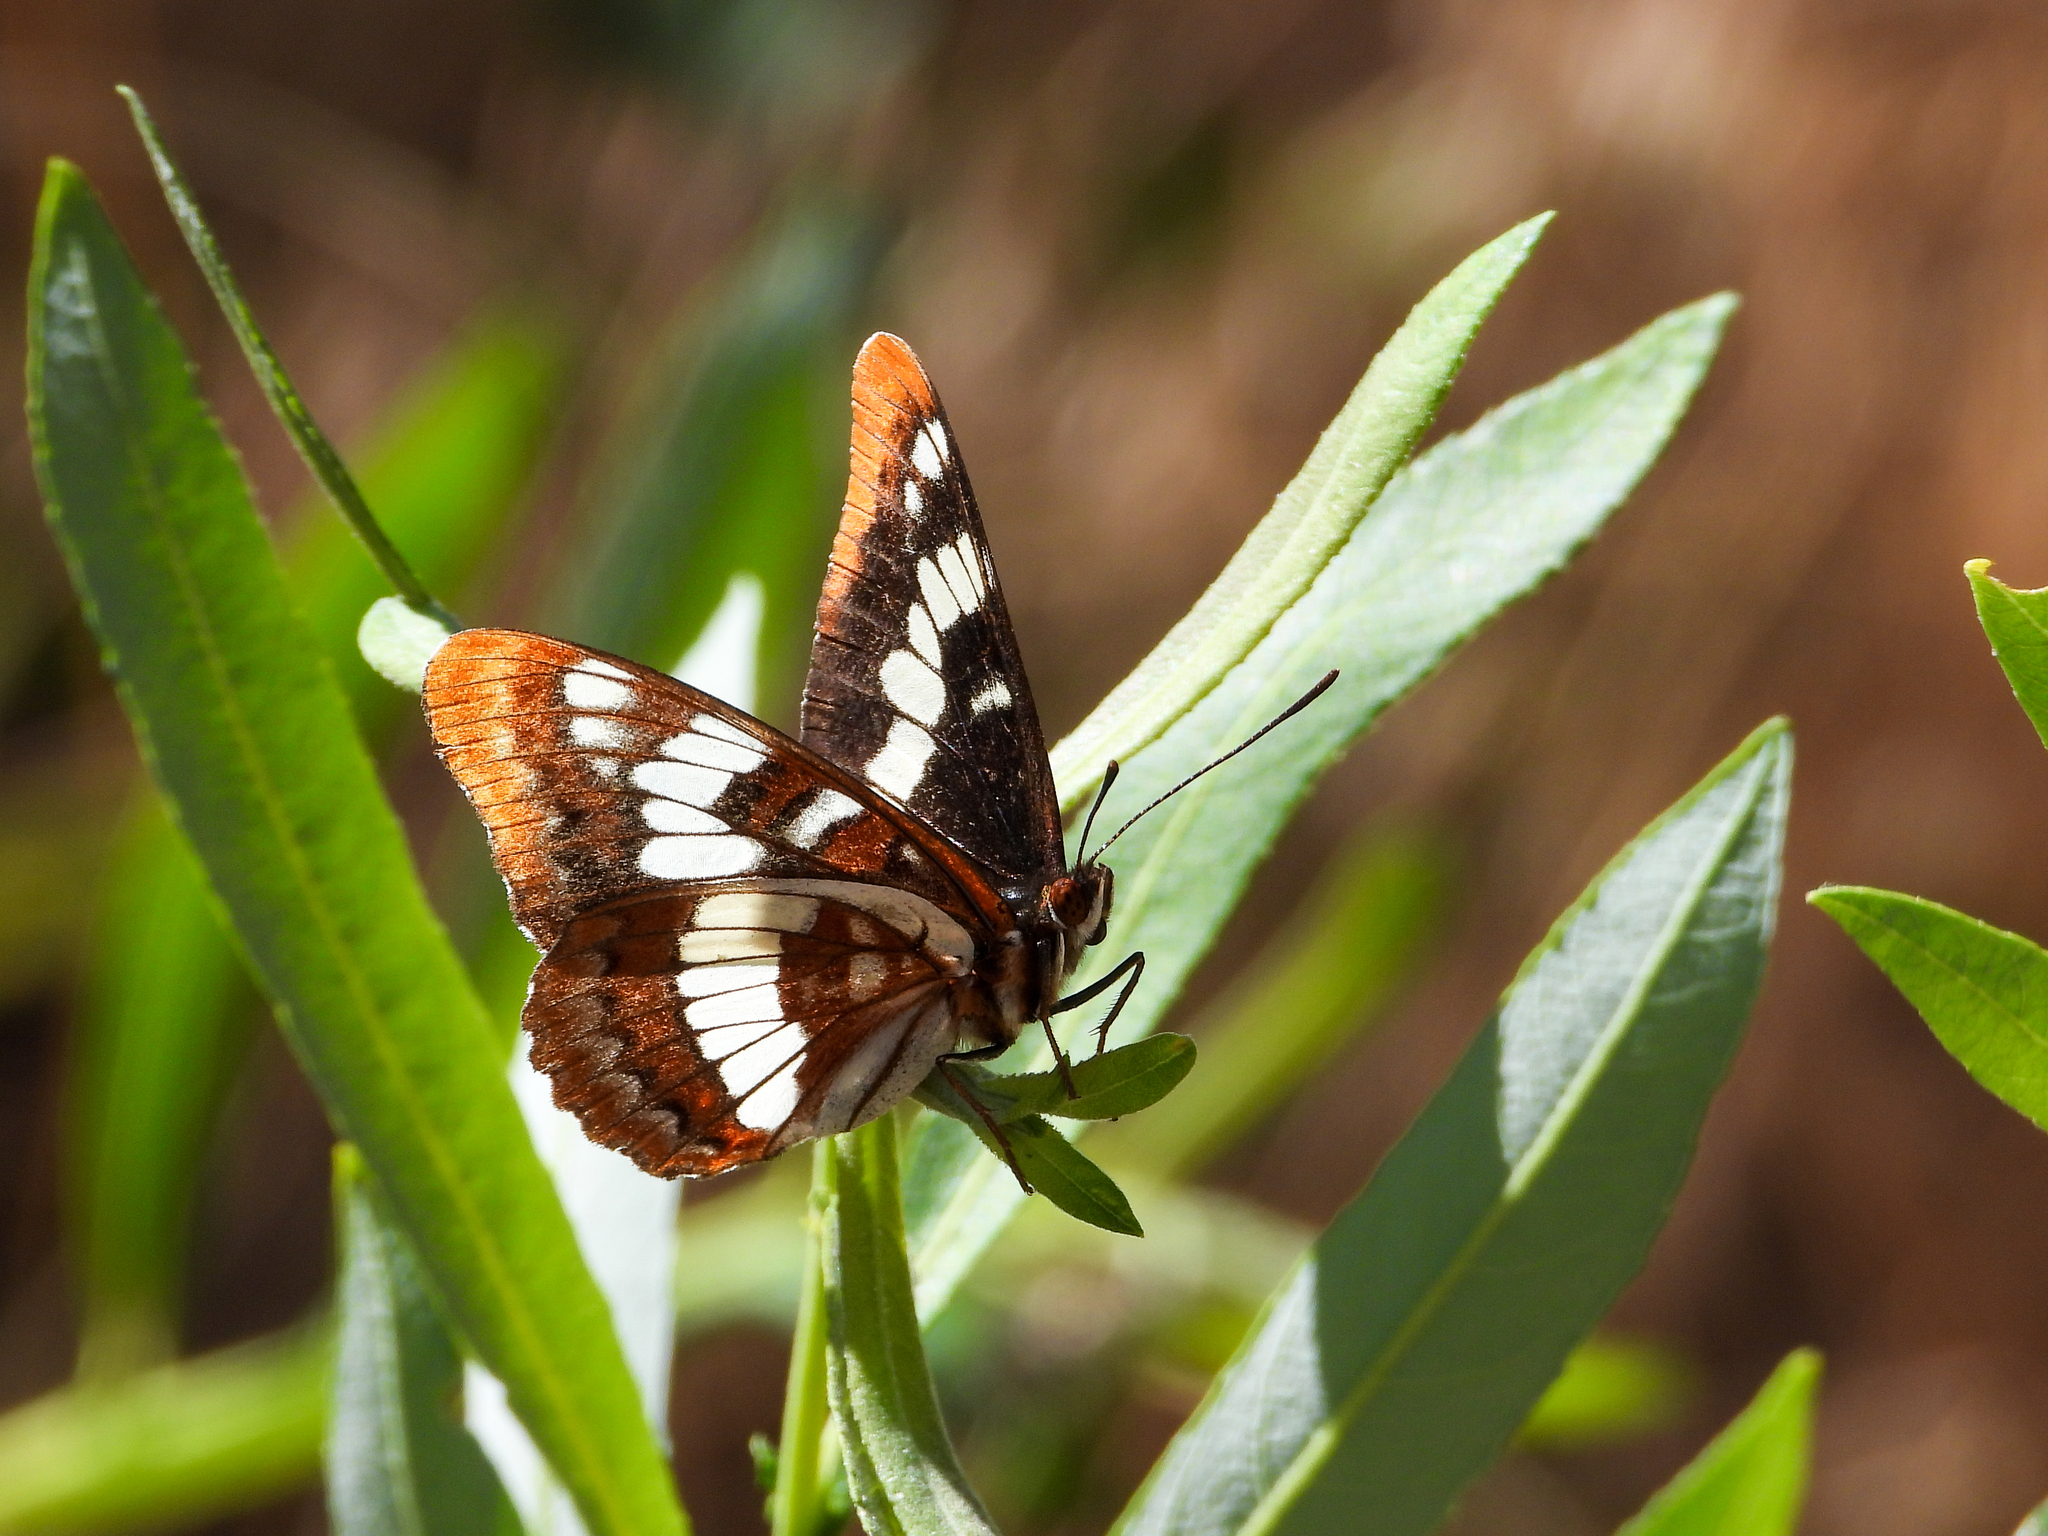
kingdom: Animalia
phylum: Arthropoda
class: Insecta
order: Lepidoptera
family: Nymphalidae
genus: Limenitis
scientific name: Limenitis lorquini
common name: Lorquin's admiral
